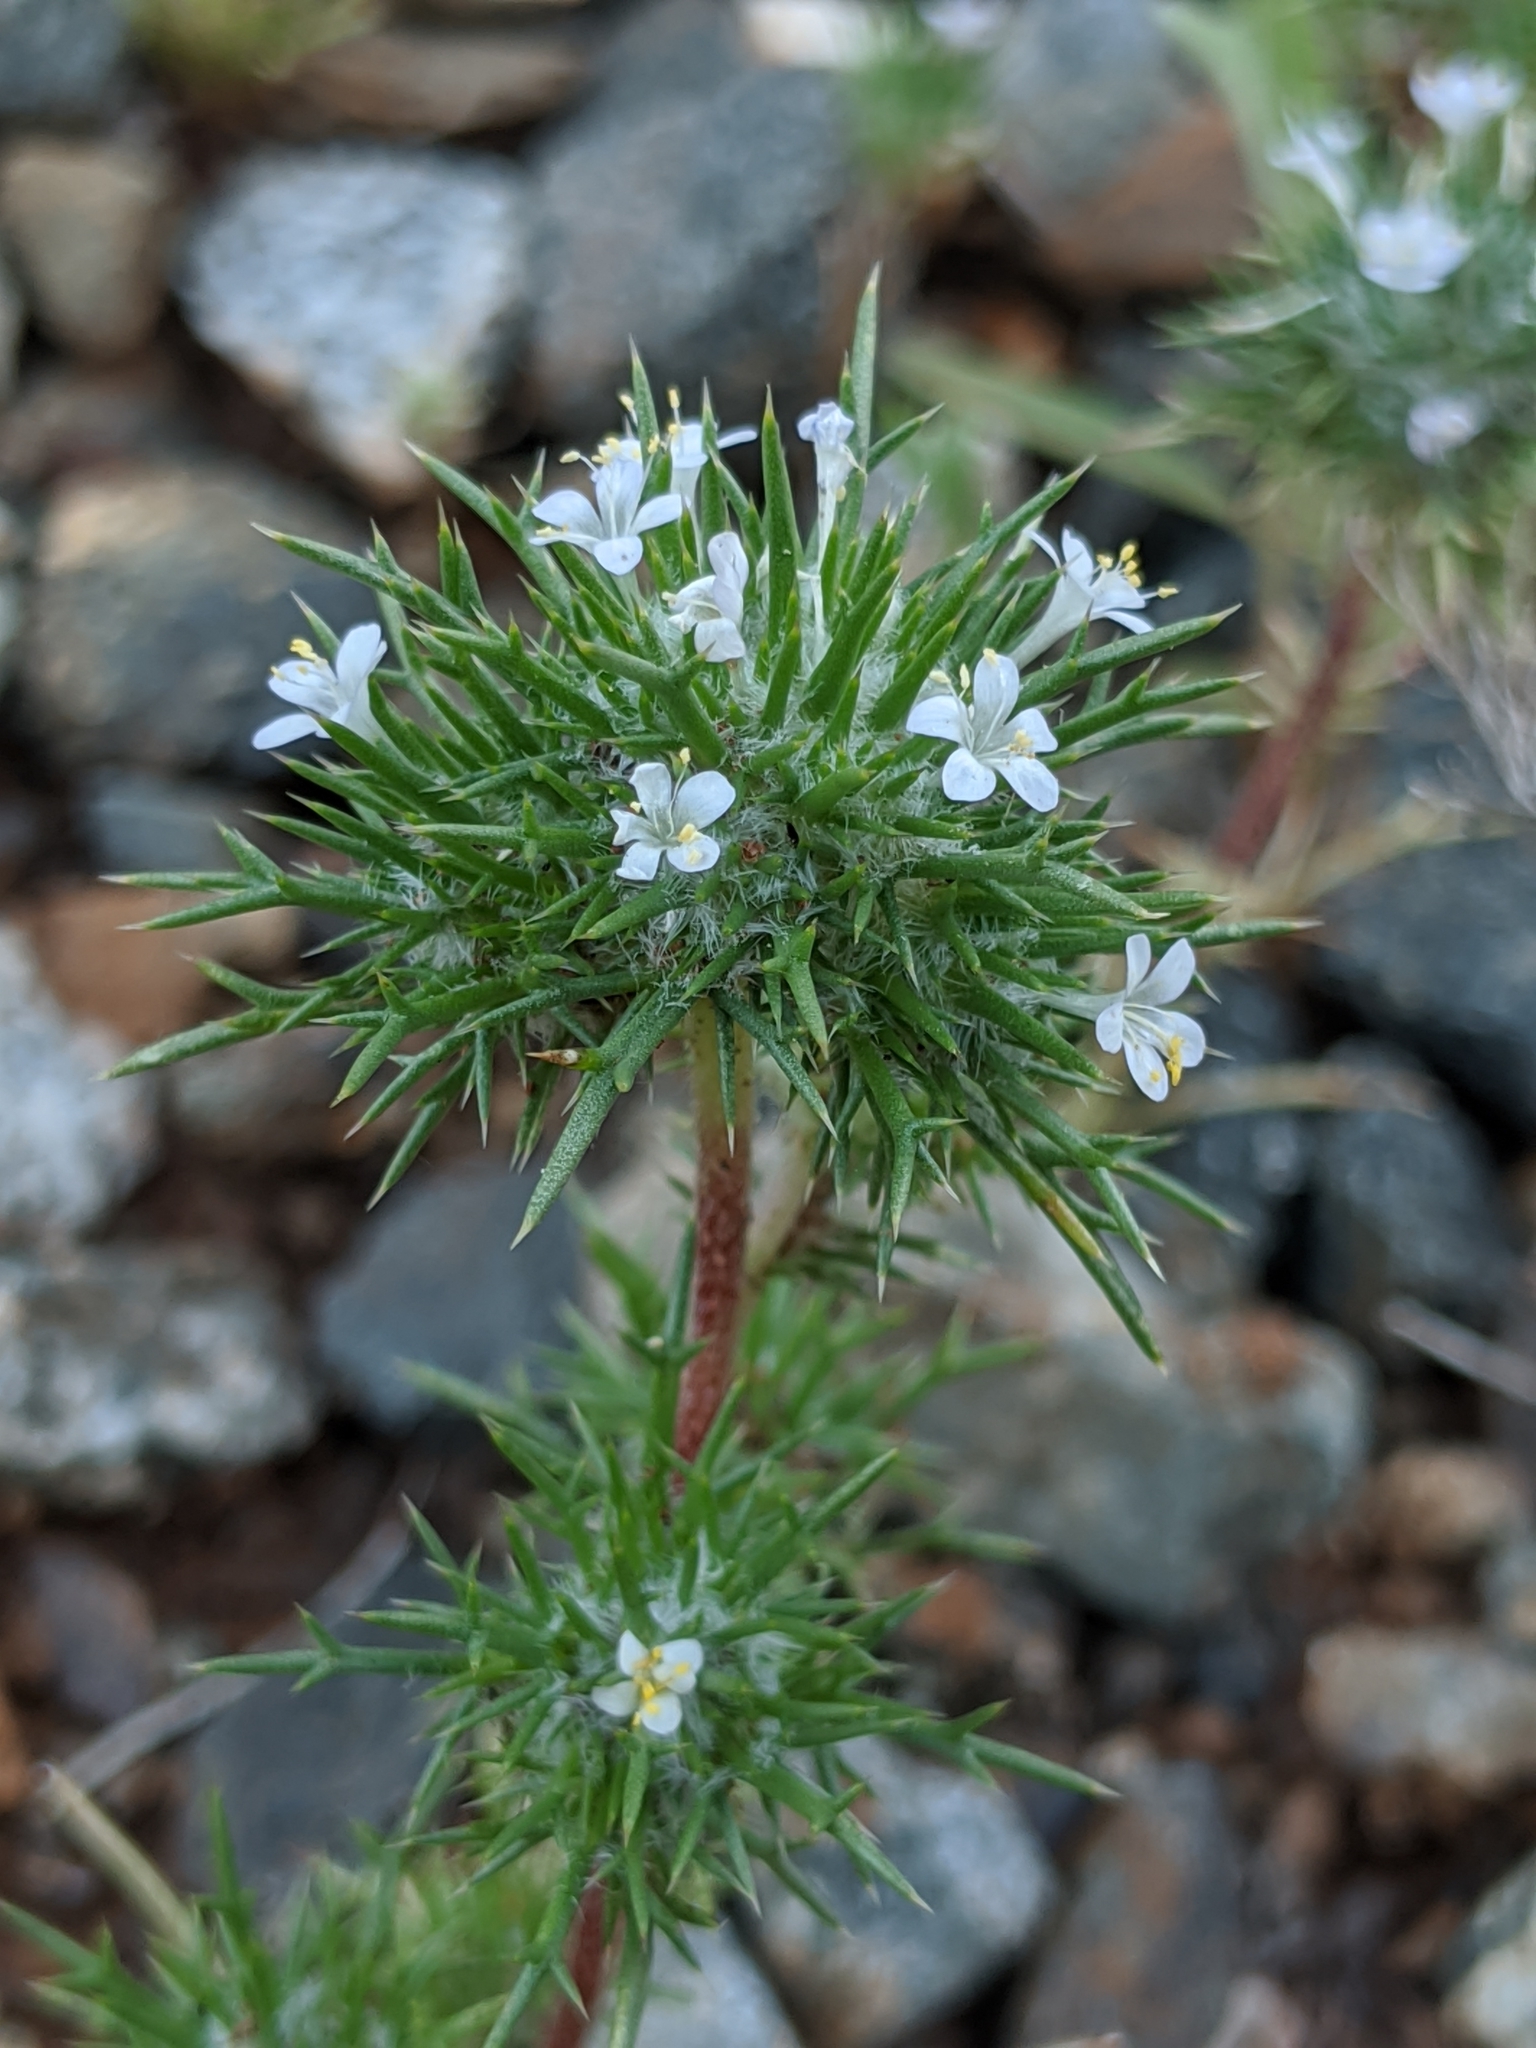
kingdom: Plantae
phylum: Tracheophyta
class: Magnoliopsida
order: Ericales
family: Polemoniaceae
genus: Navarretia
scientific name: Navarretia intertexta
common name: Needle-leaved navarretia
